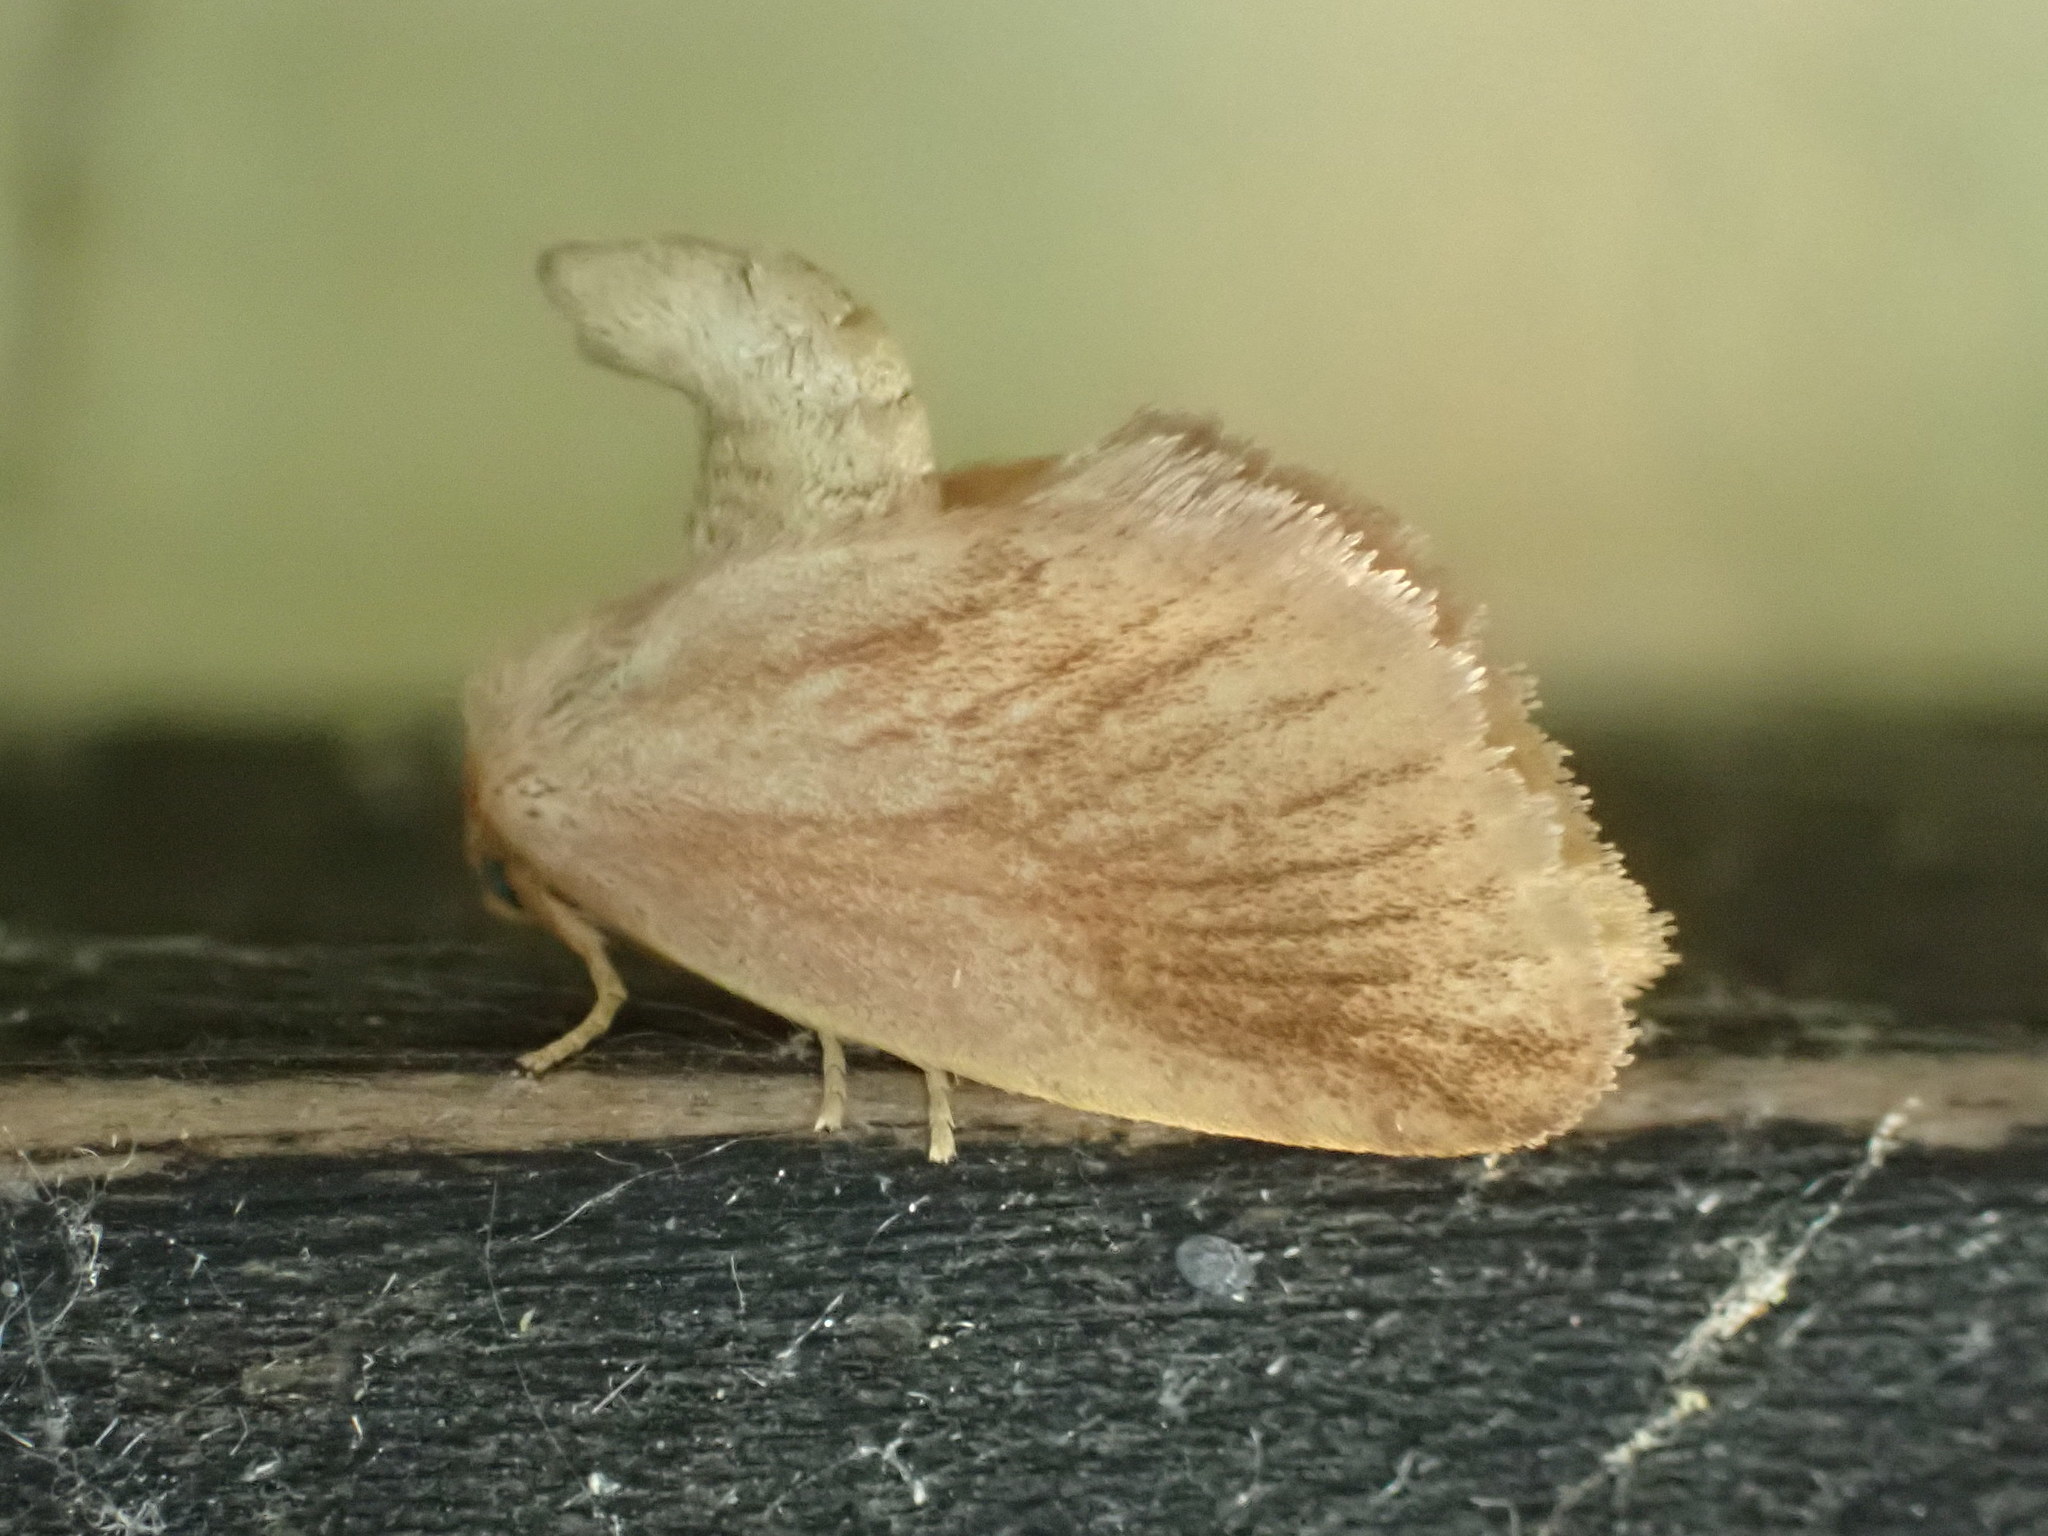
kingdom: Animalia
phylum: Arthropoda
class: Insecta
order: Lepidoptera
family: Limacodidae
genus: Tortricidia
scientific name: Tortricidia testacea
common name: Early button slug moth
